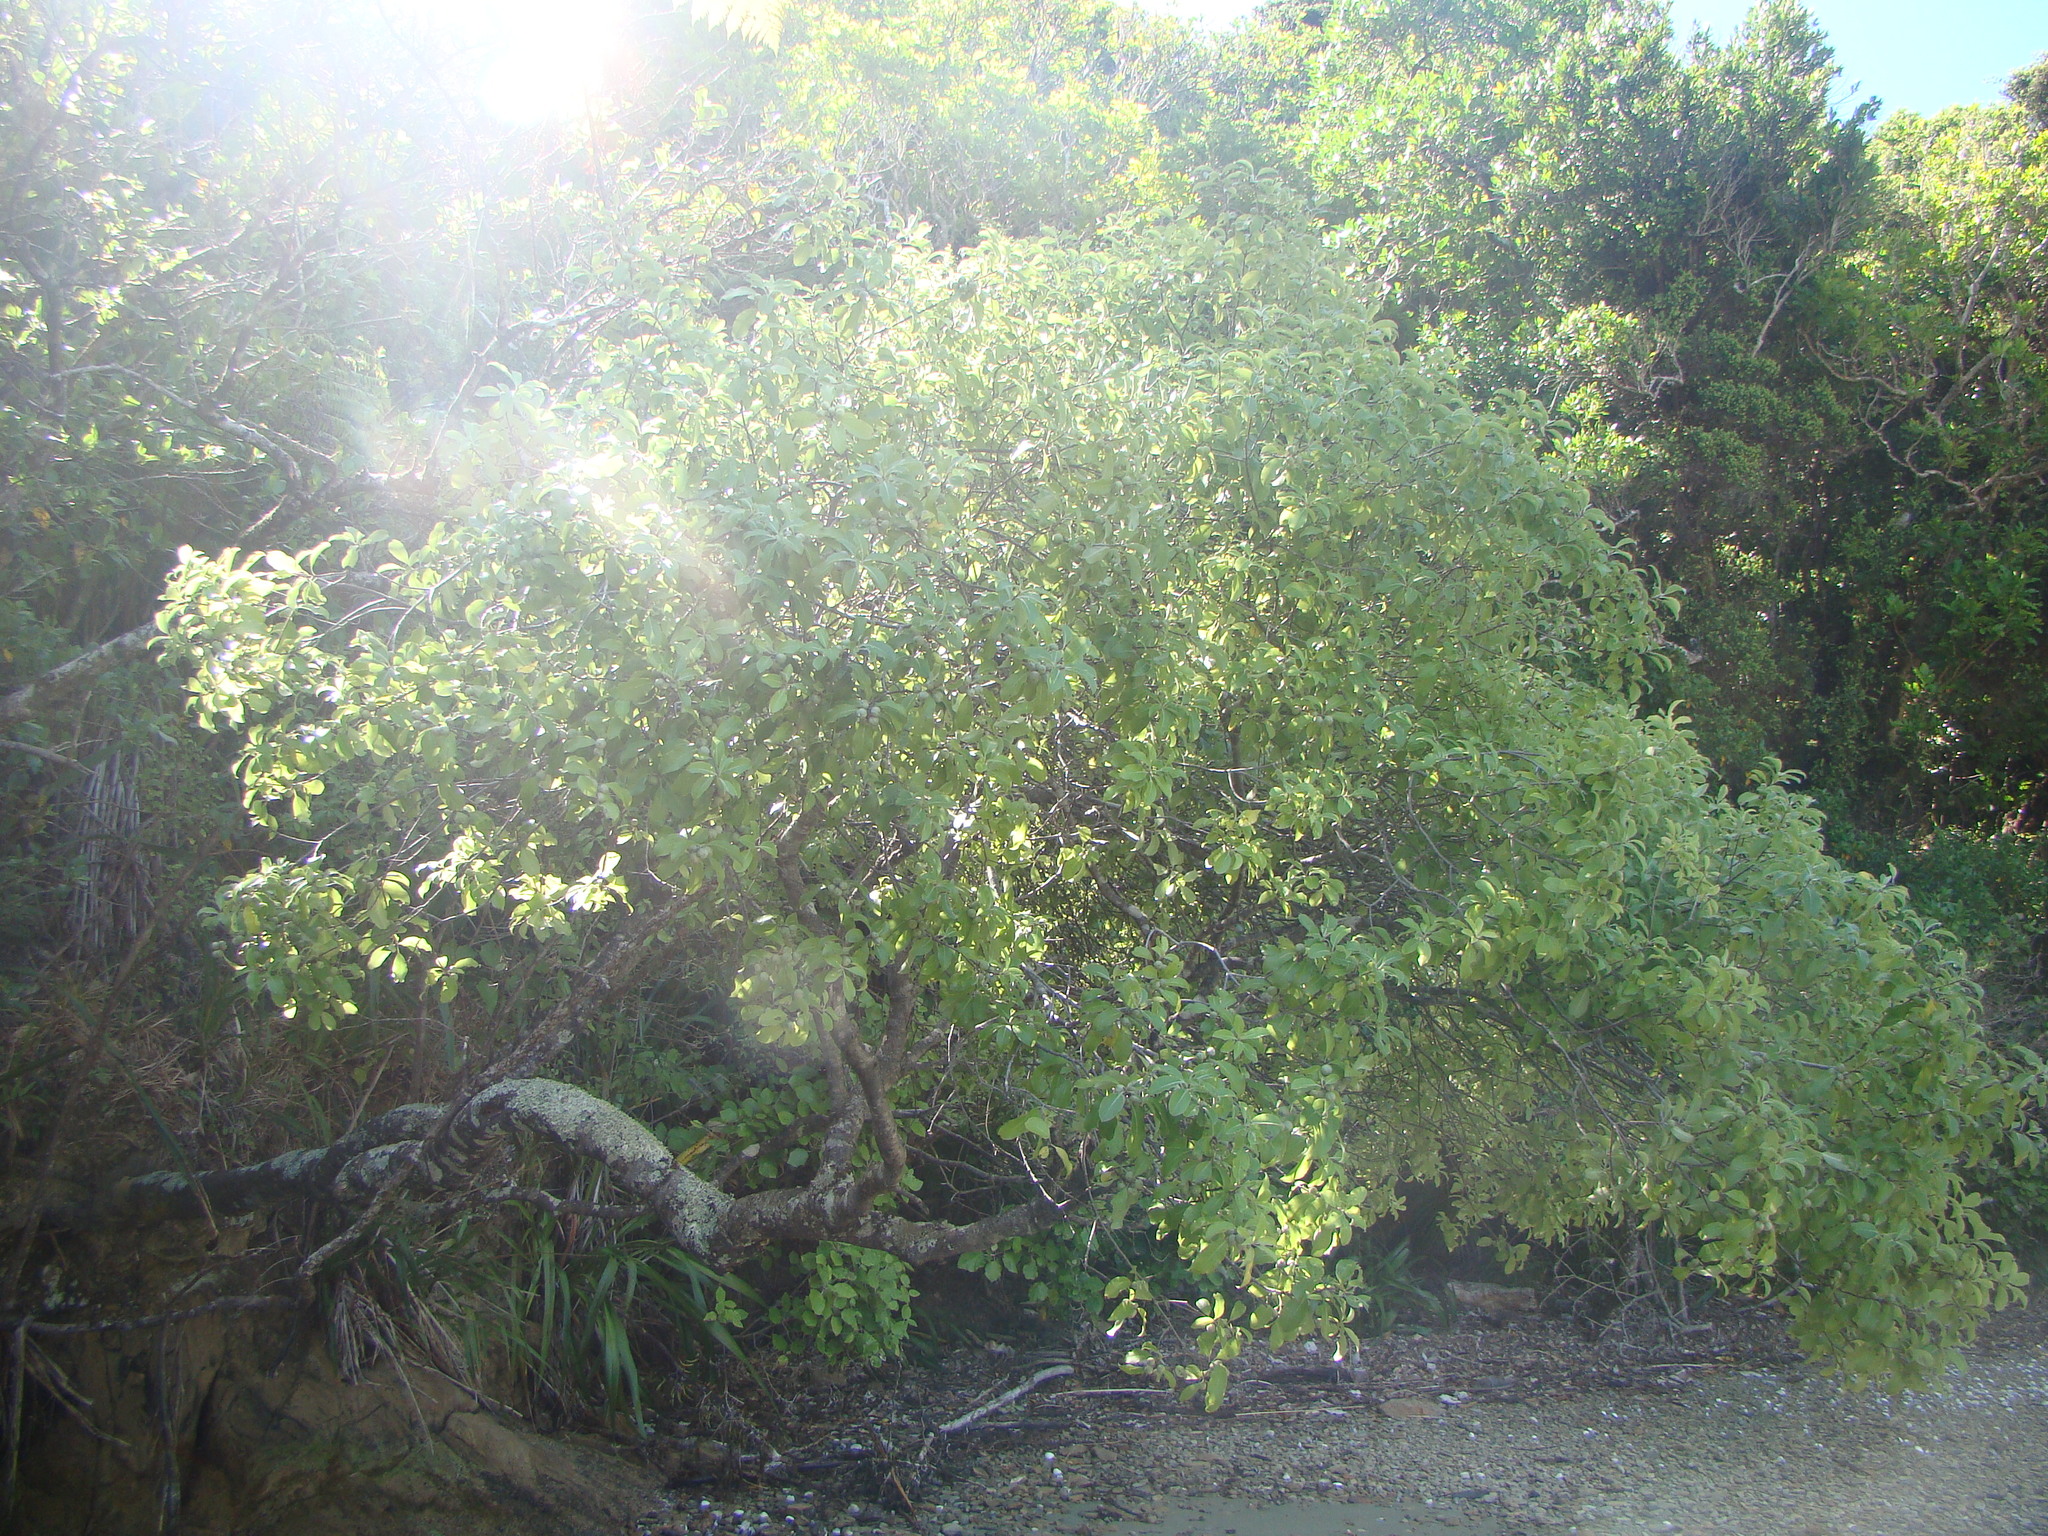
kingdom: Plantae
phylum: Tracheophyta
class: Magnoliopsida
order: Apiales
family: Pittosporaceae
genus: Pittosporum
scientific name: Pittosporum colensoi
